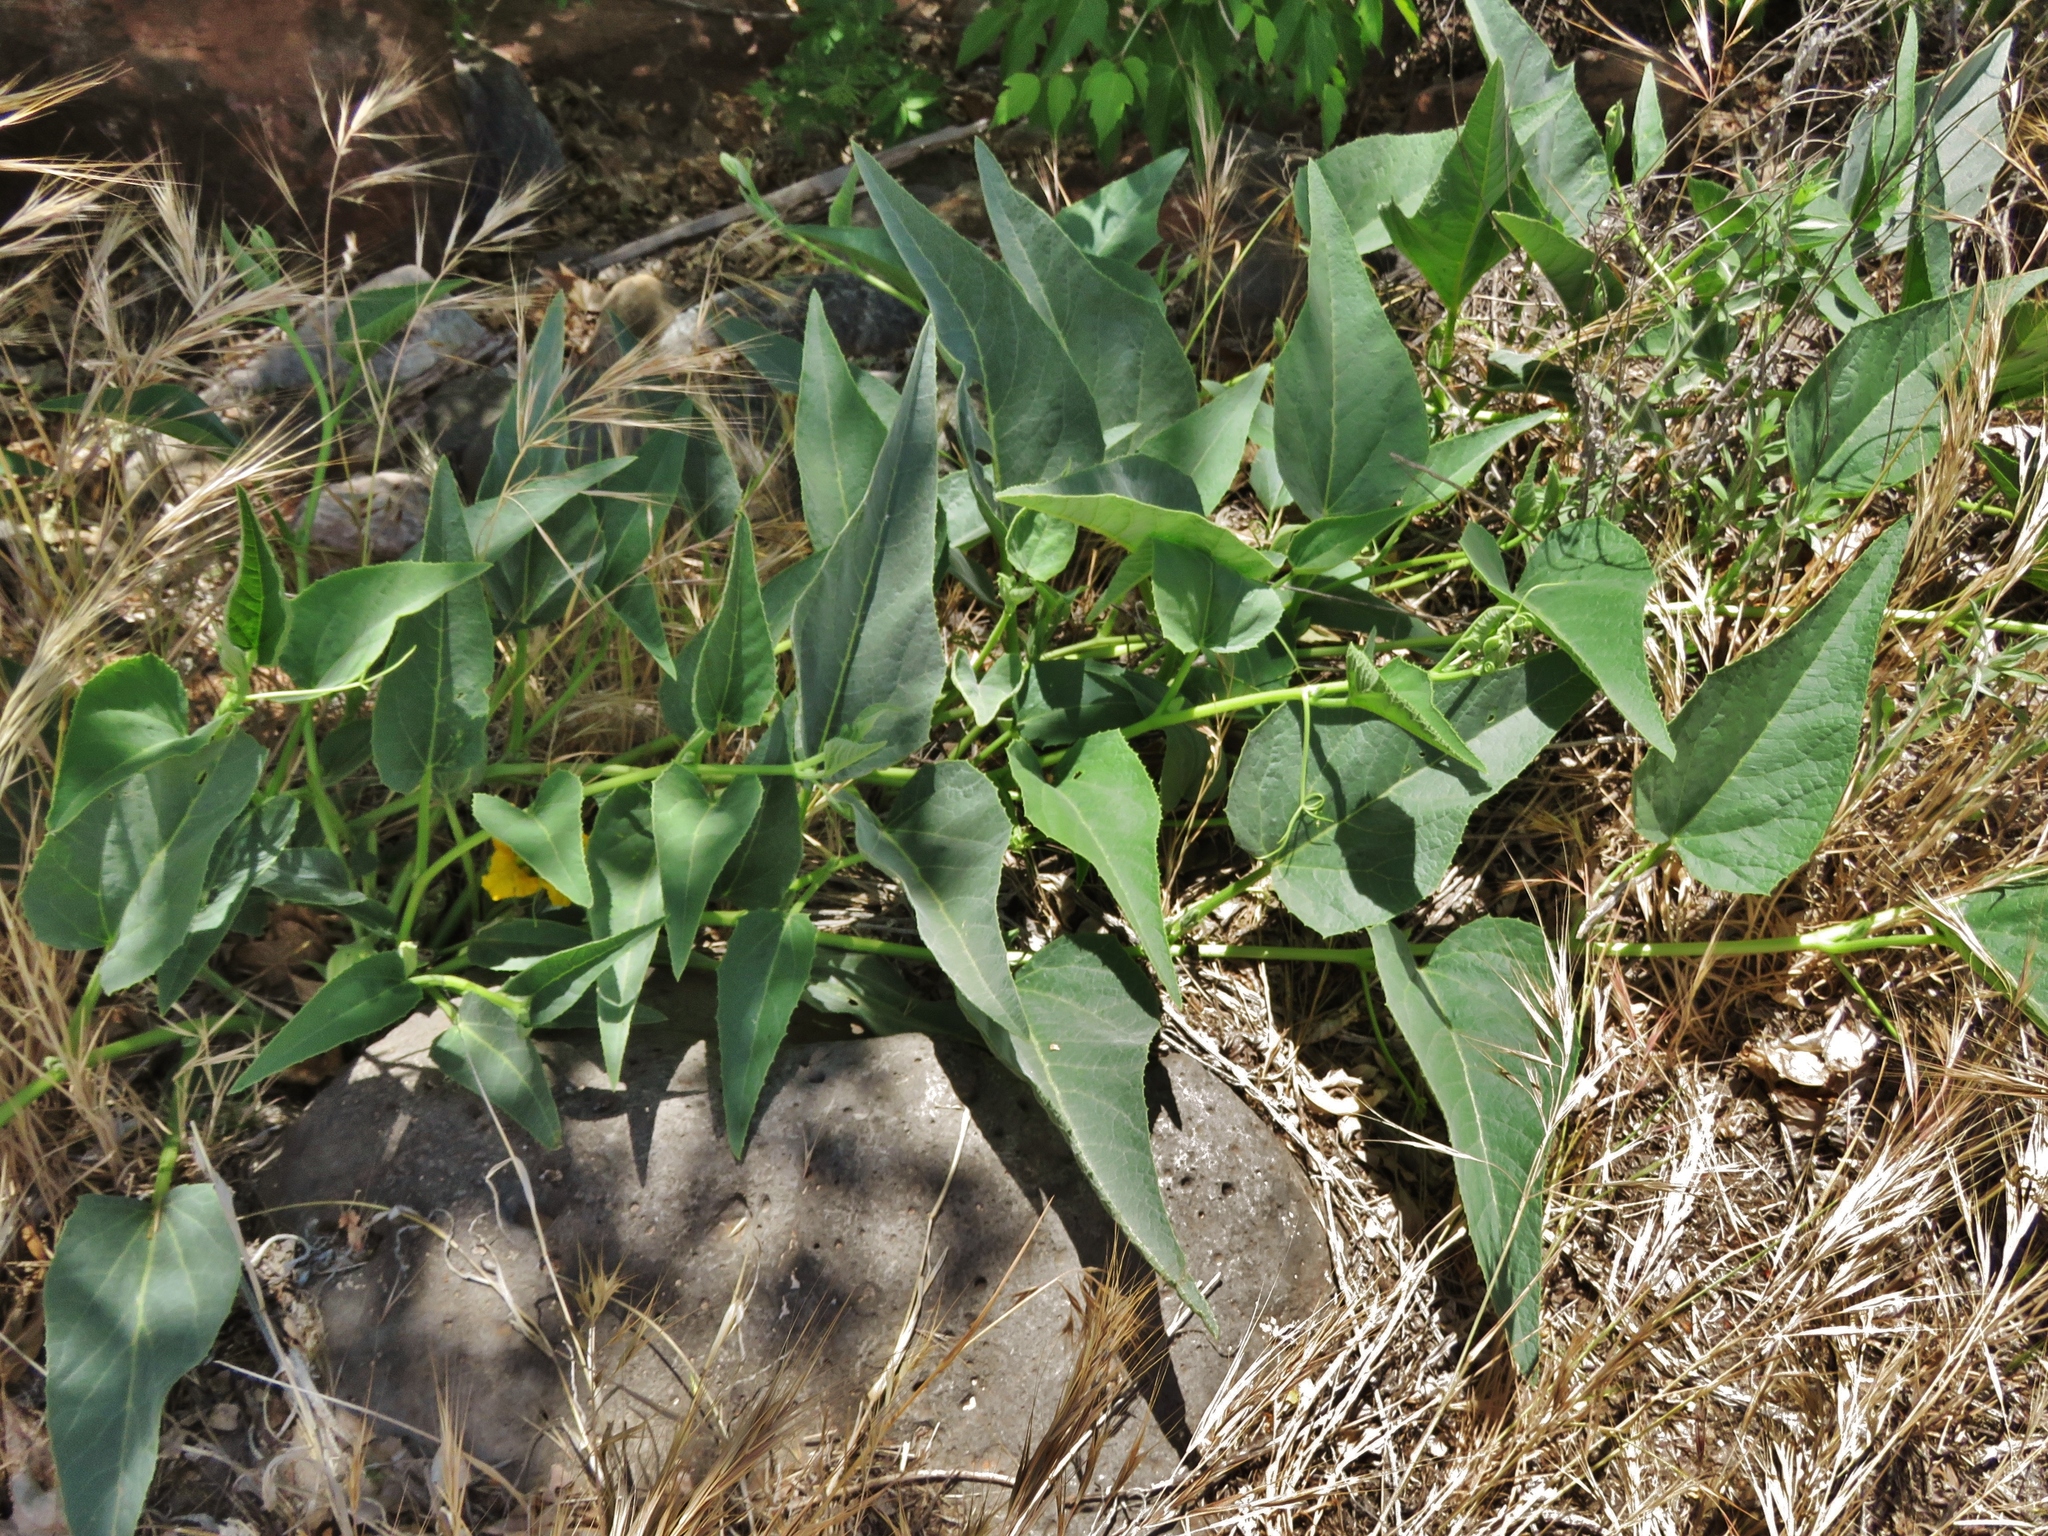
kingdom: Plantae
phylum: Tracheophyta
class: Magnoliopsida
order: Cucurbitales
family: Cucurbitaceae
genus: Cucurbita
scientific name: Cucurbita foetidissima
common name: Buffalo gourd
